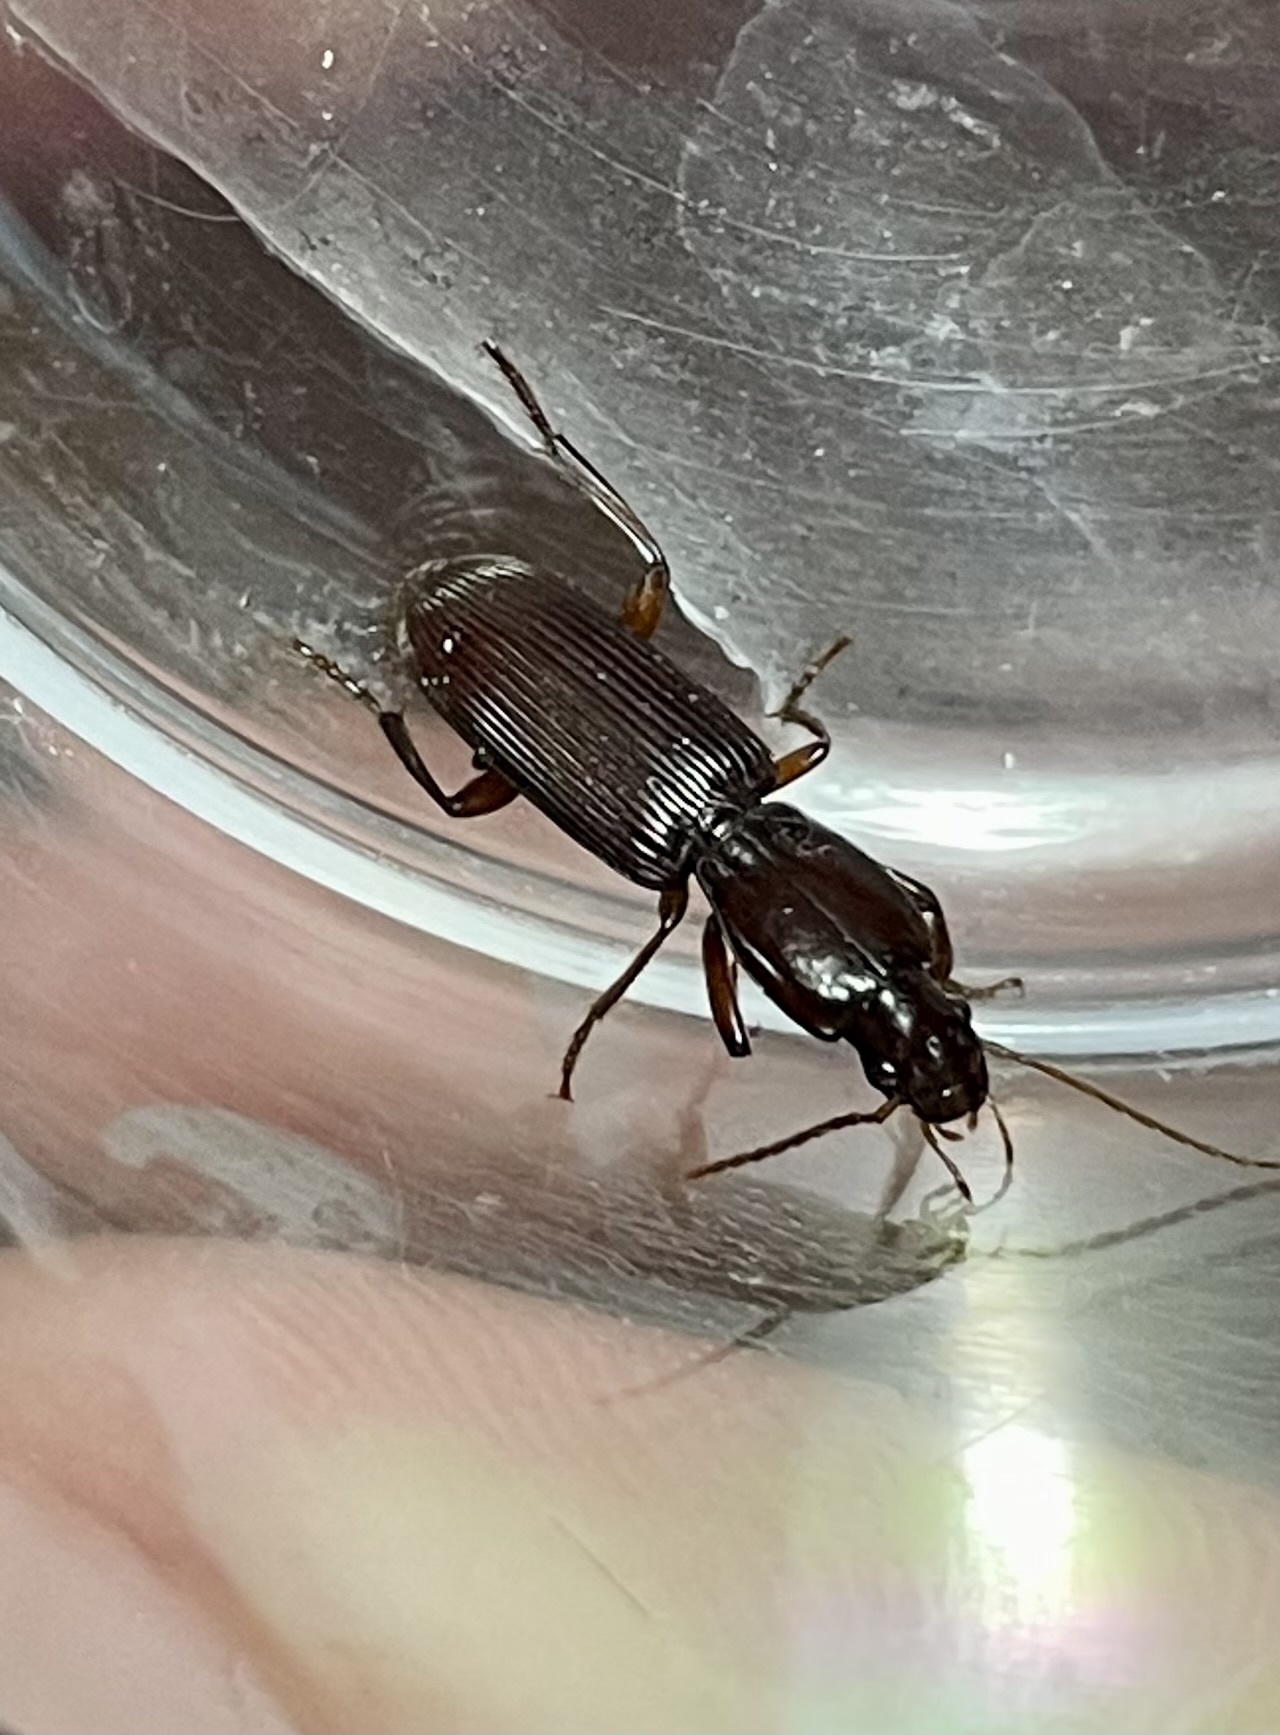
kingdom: Animalia
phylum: Arthropoda
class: Insecta
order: Coleoptera
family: Carabidae
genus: Stenomorphus
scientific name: Stenomorphus californicus
